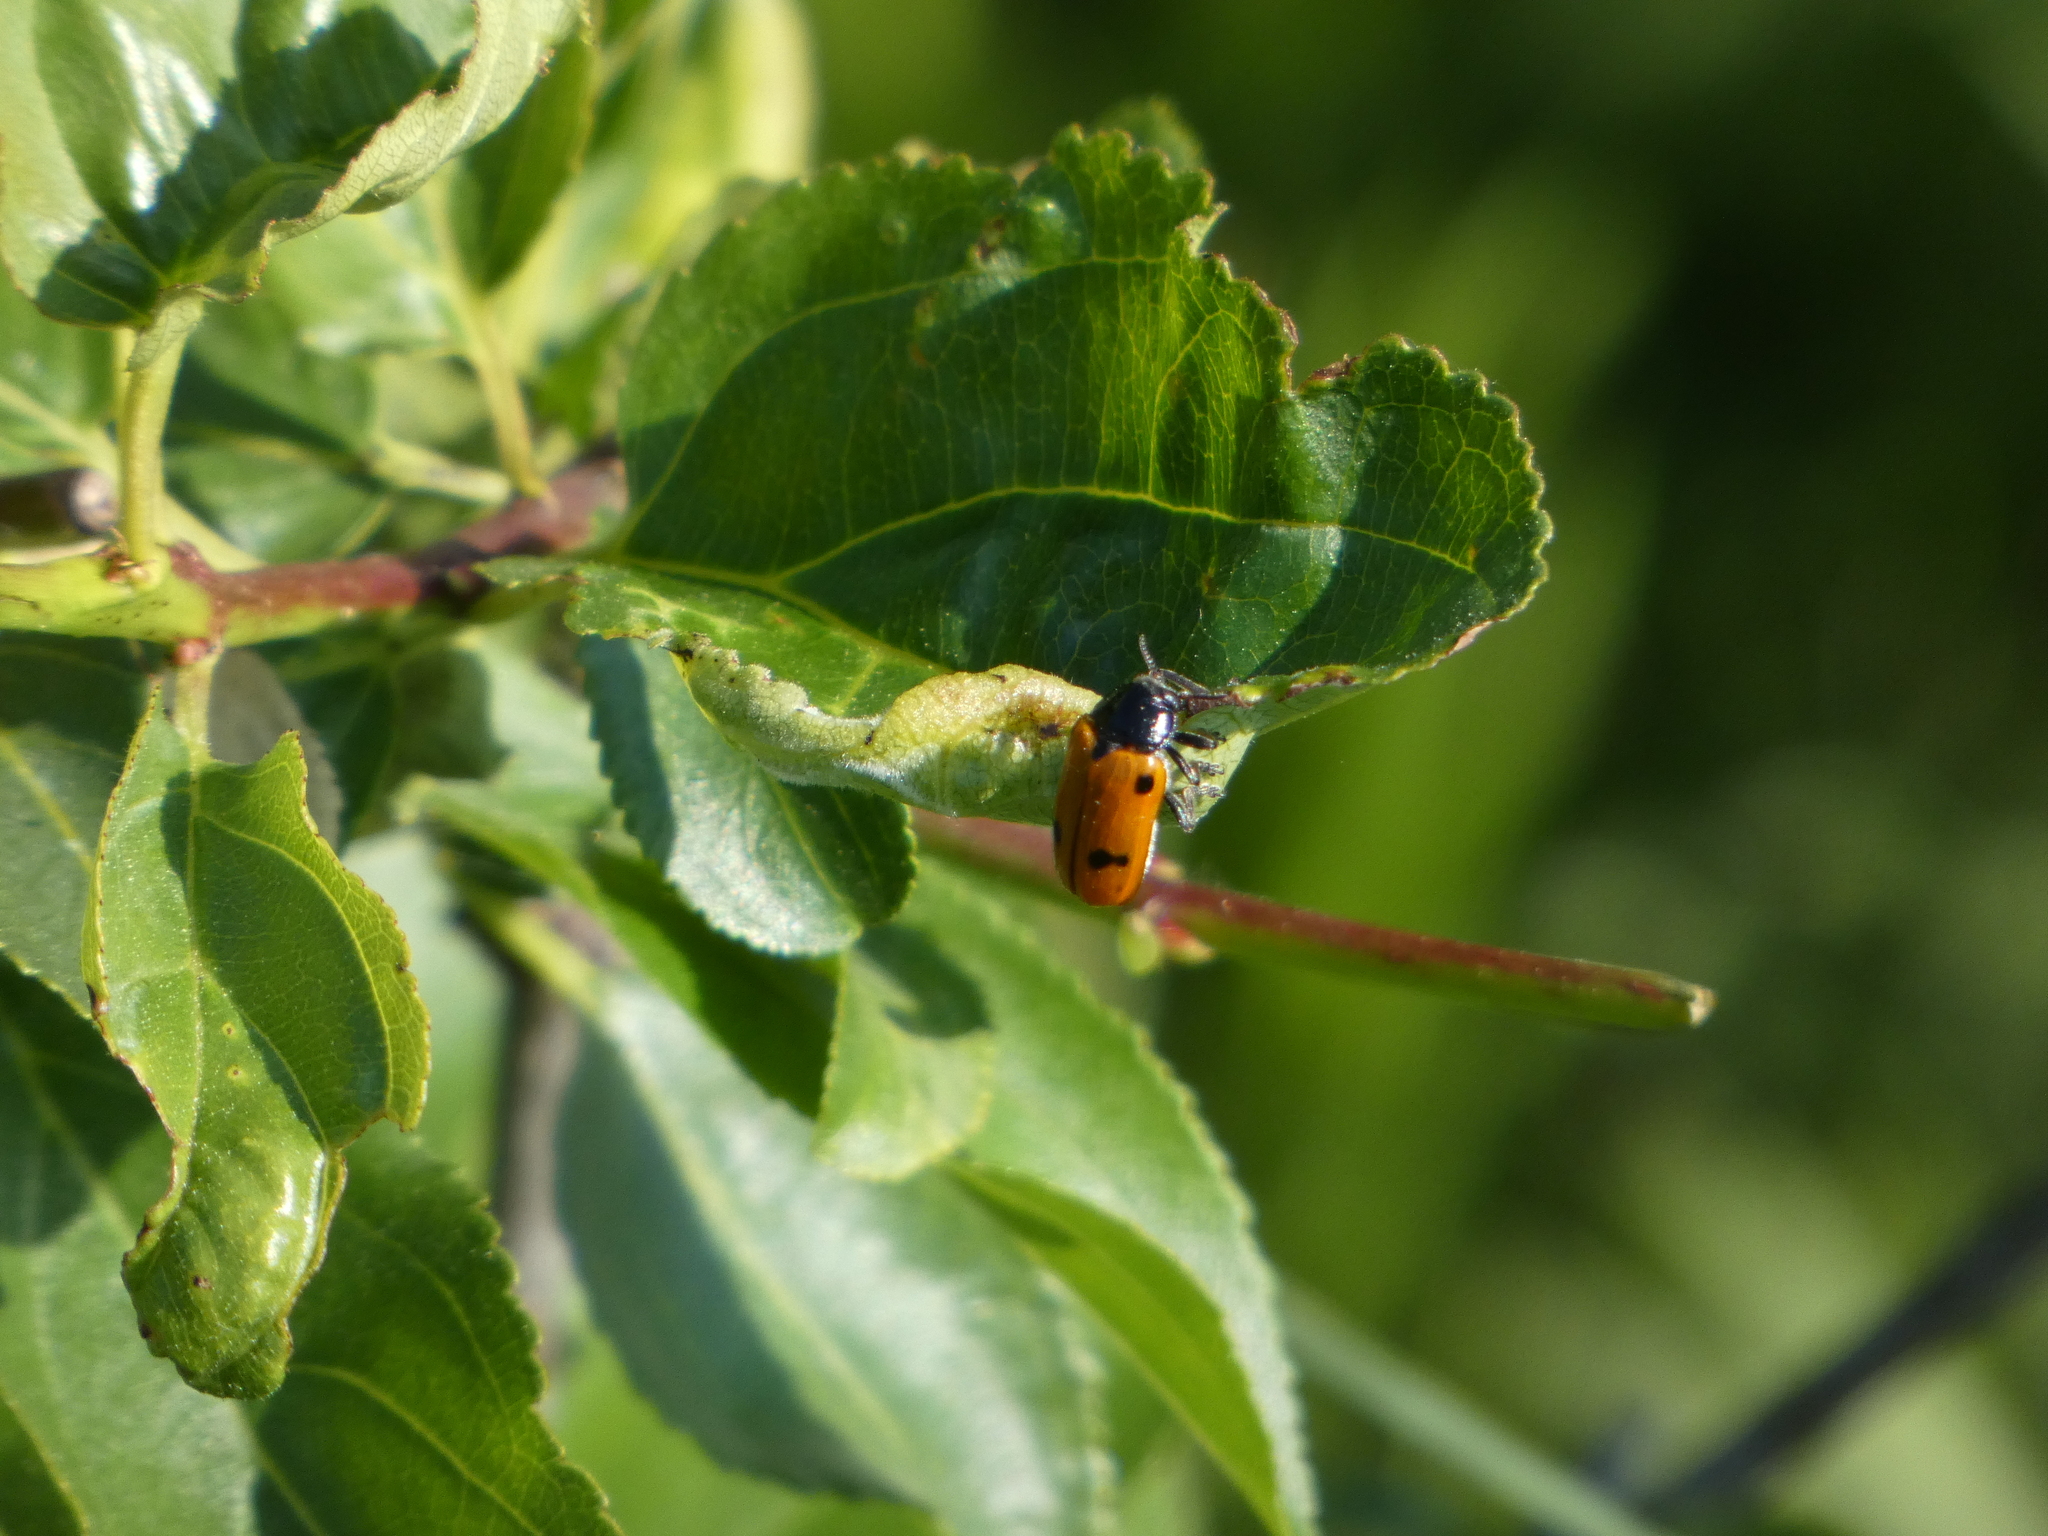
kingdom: Animalia
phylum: Arthropoda
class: Insecta
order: Coleoptera
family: Chrysomelidae
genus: Clytra
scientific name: Clytra quadripunctata
